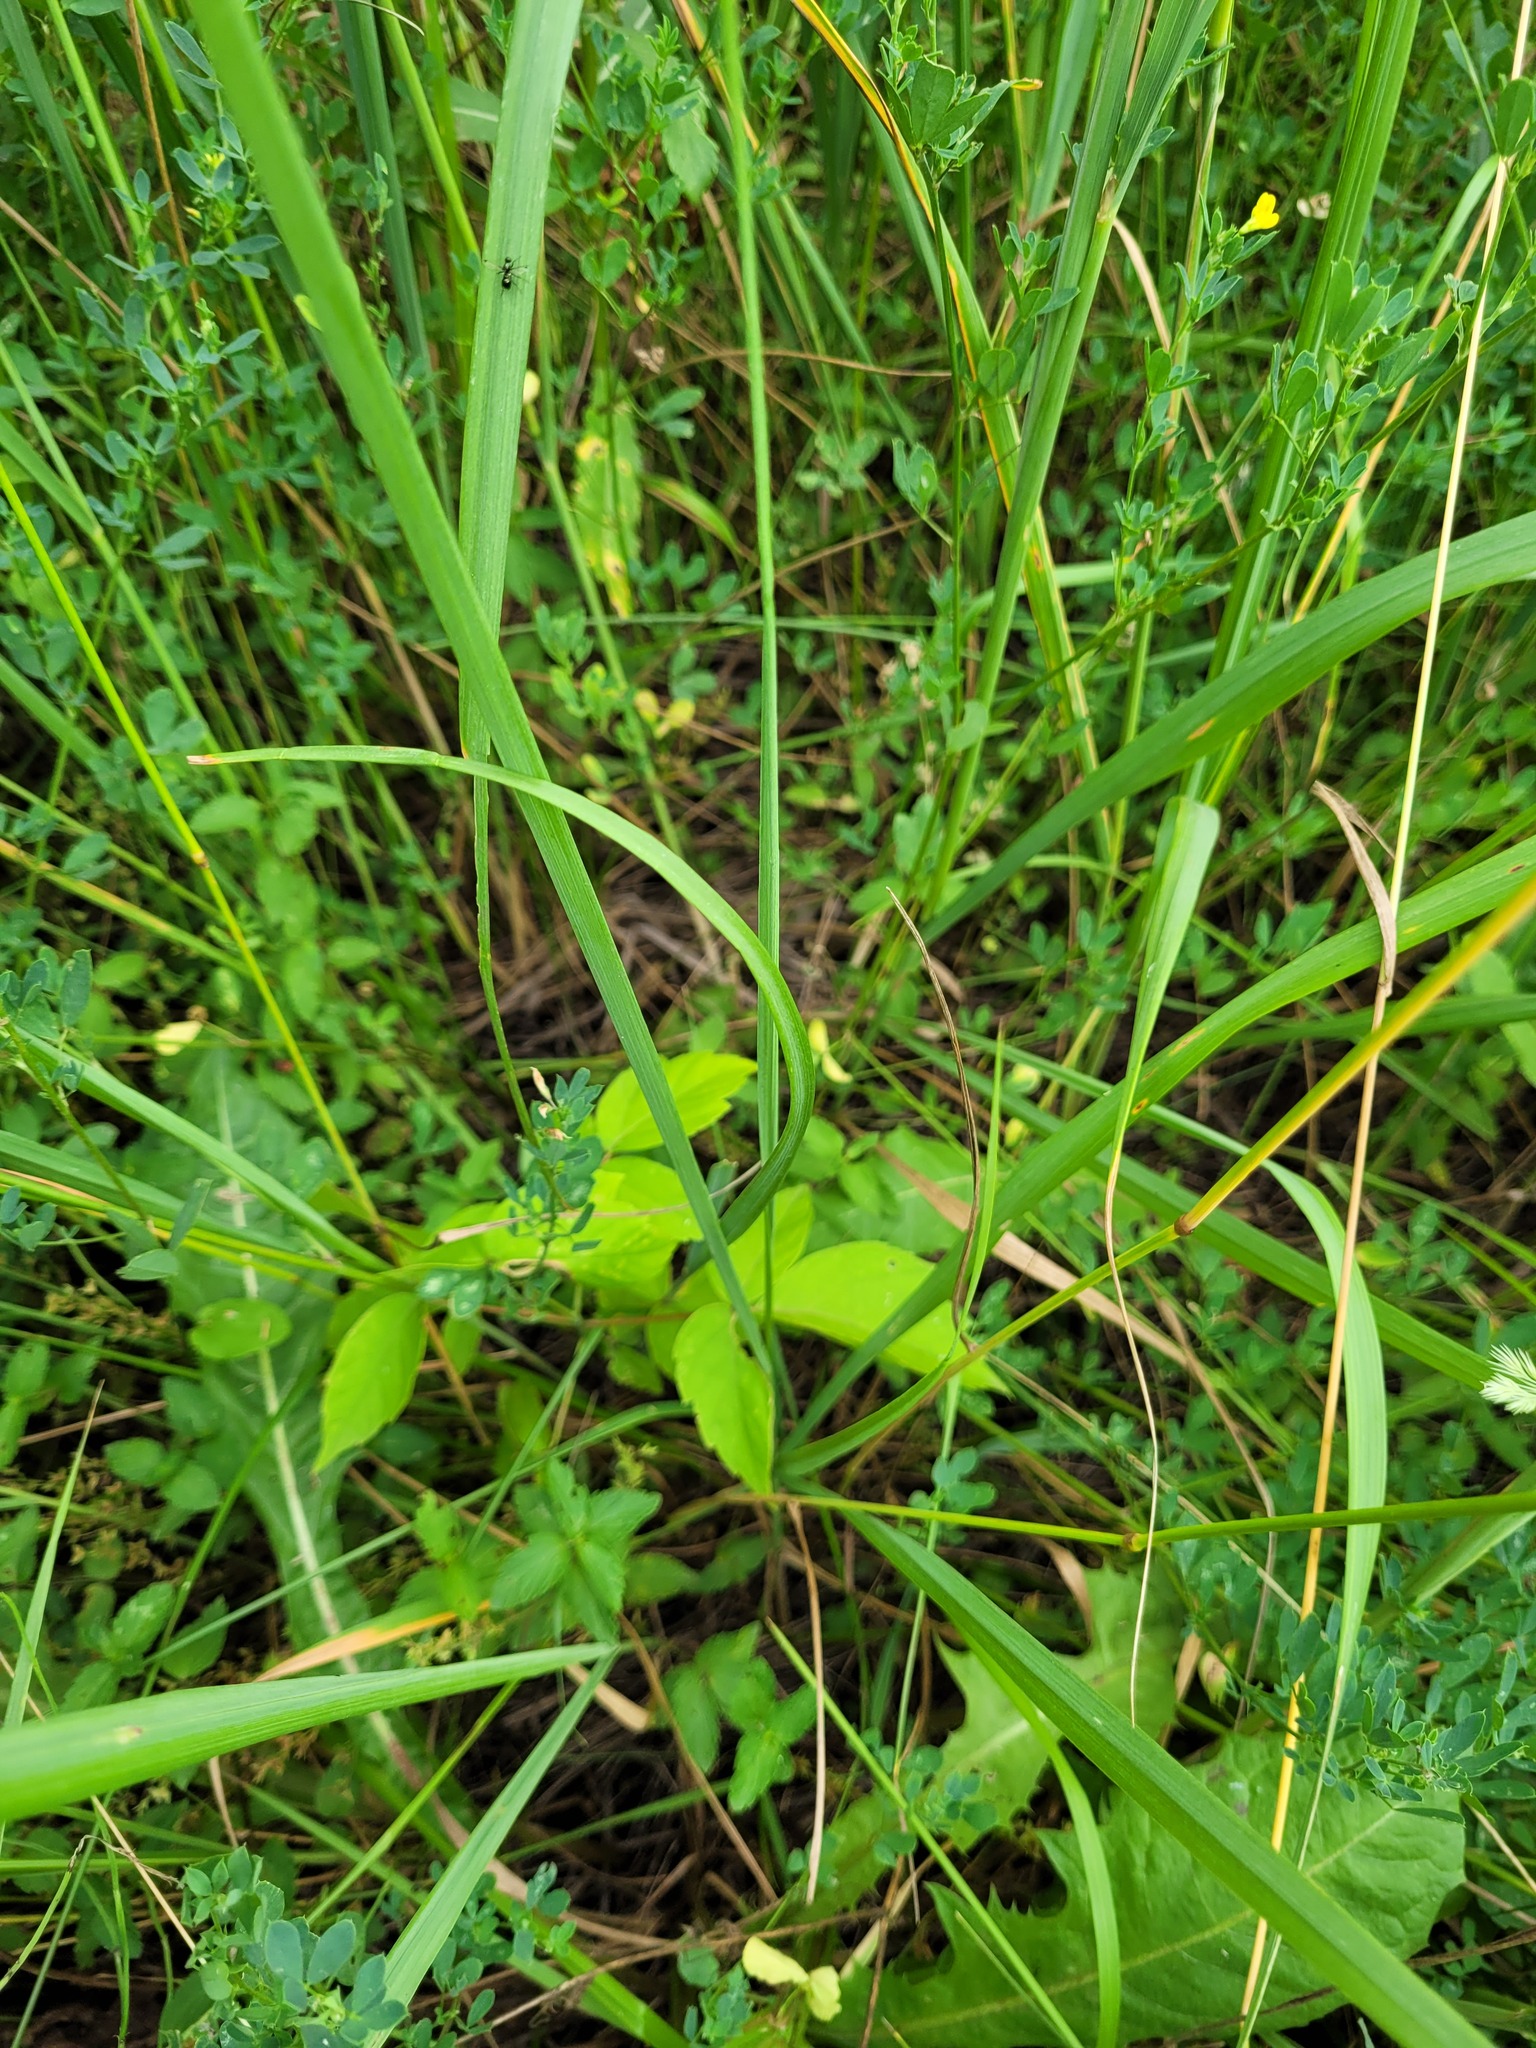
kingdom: Plantae
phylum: Tracheophyta
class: Magnoliopsida
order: Sapindales
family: Sapindaceae
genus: Acer
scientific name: Acer negundo
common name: Ashleaf maple
